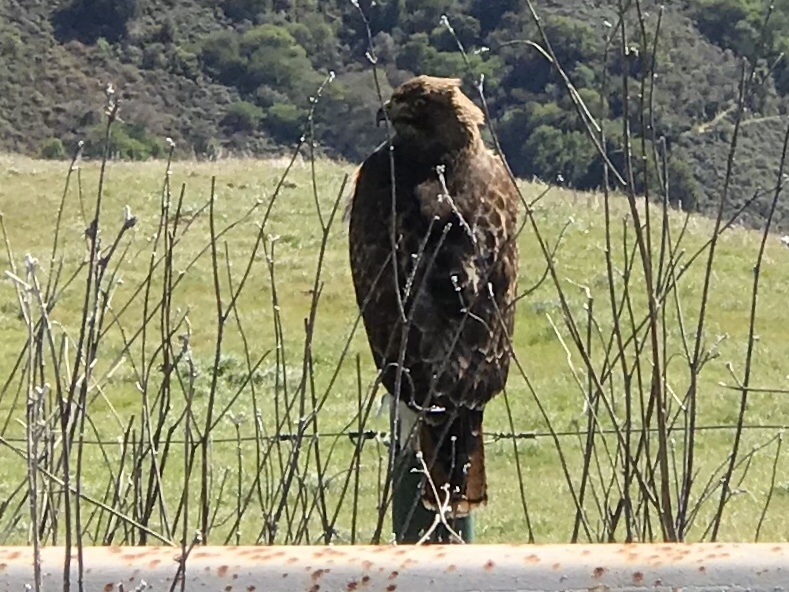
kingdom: Animalia
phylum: Chordata
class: Aves
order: Accipitriformes
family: Accipitridae
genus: Buteo
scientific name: Buteo jamaicensis
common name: Red-tailed hawk
